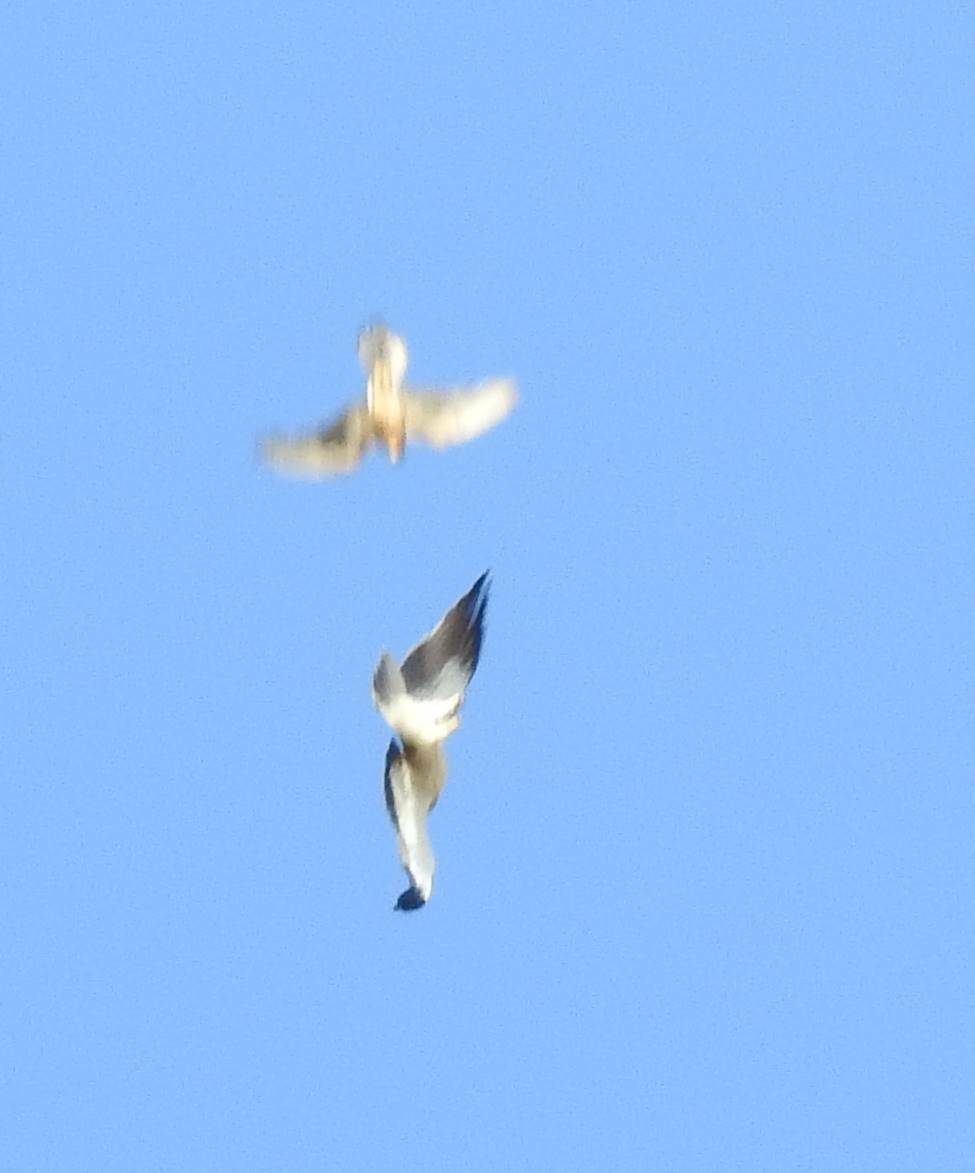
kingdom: Animalia
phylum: Chordata
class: Aves
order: Accipitriformes
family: Accipitridae
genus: Hieraaetus
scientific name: Hieraaetus pennatus
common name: Booted eagle
